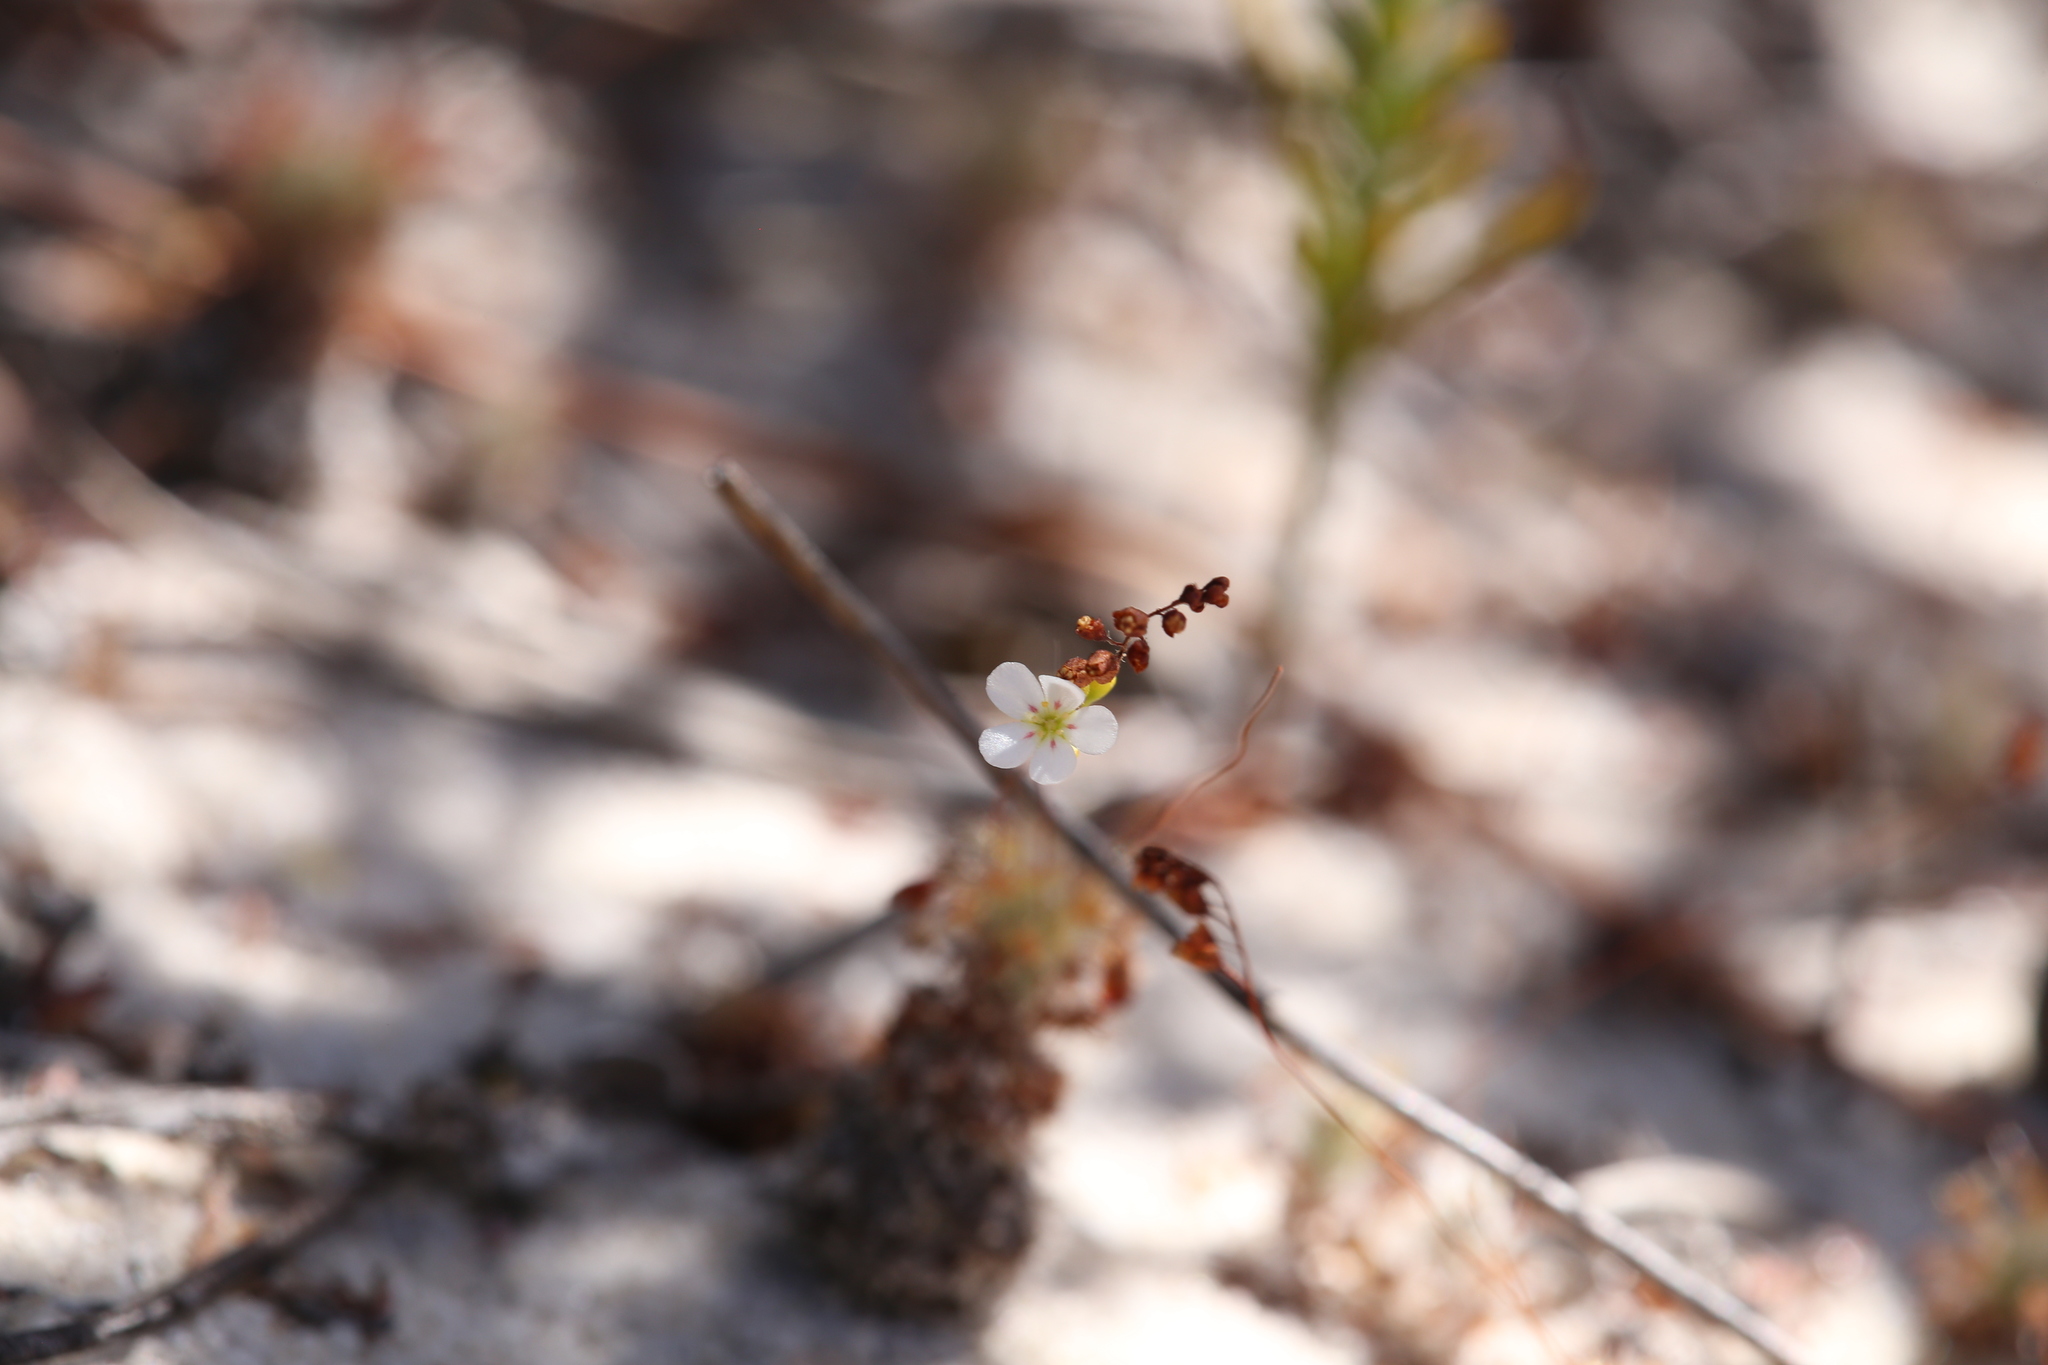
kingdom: Plantae
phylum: Tracheophyta
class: Magnoliopsida
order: Caryophyllales
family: Droseraceae
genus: Drosera
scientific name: Drosera paleacea
